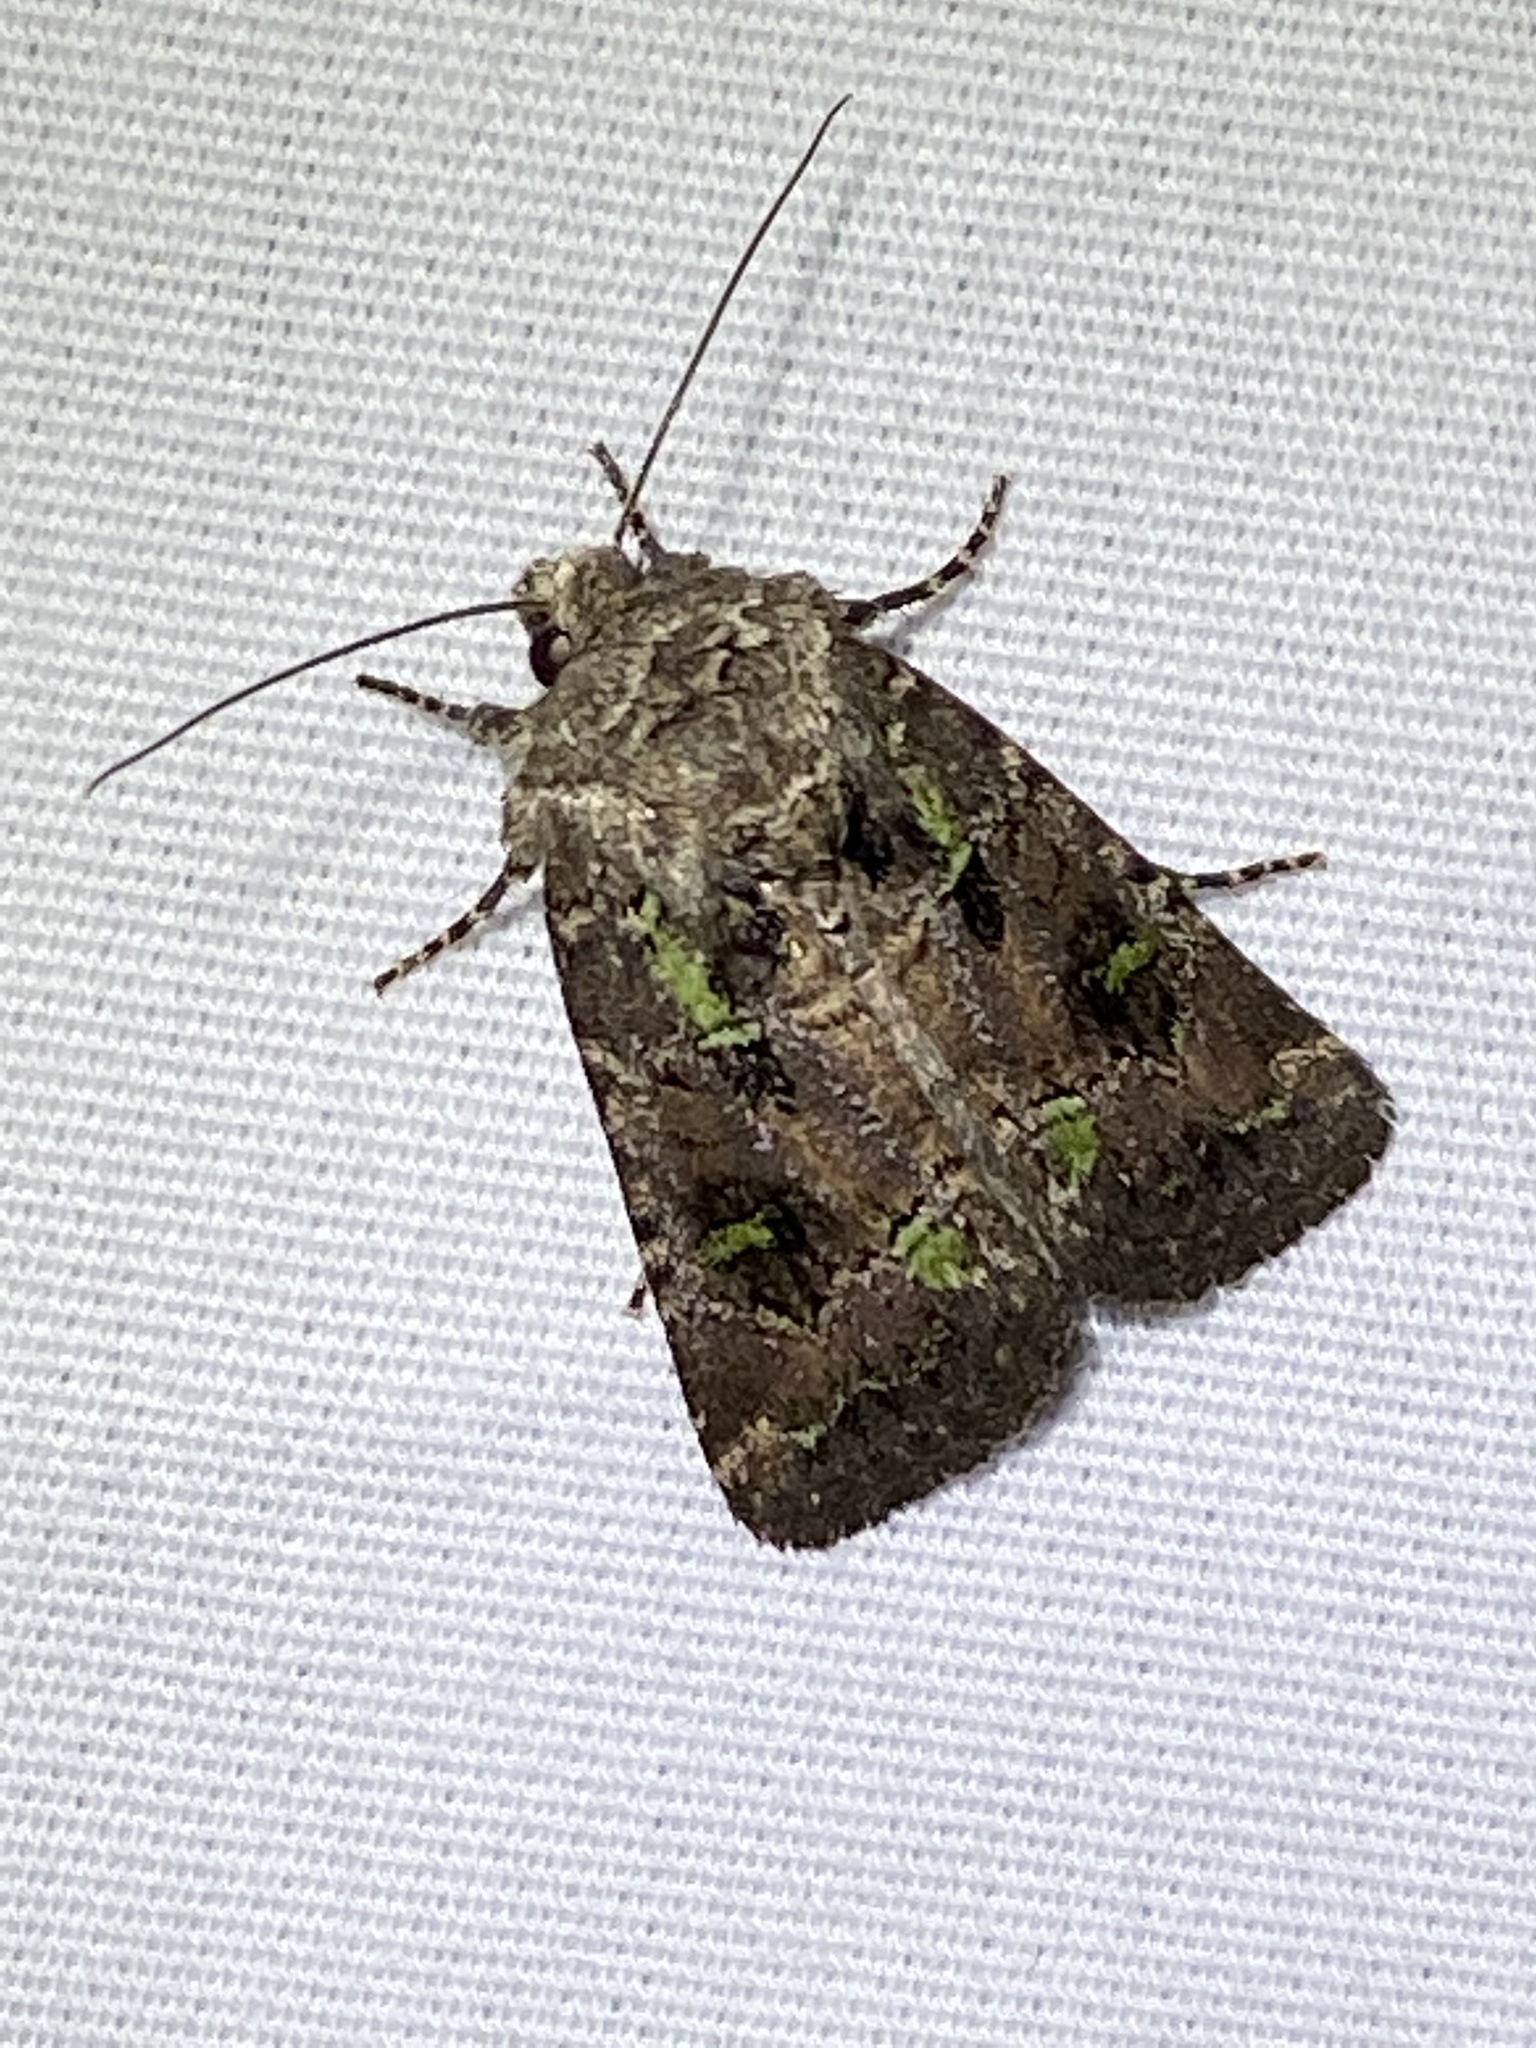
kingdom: Animalia
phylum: Arthropoda
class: Insecta
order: Lepidoptera
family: Noctuidae
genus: Lacinipolia
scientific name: Lacinipolia renigera
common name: Kidney-spotted minor
